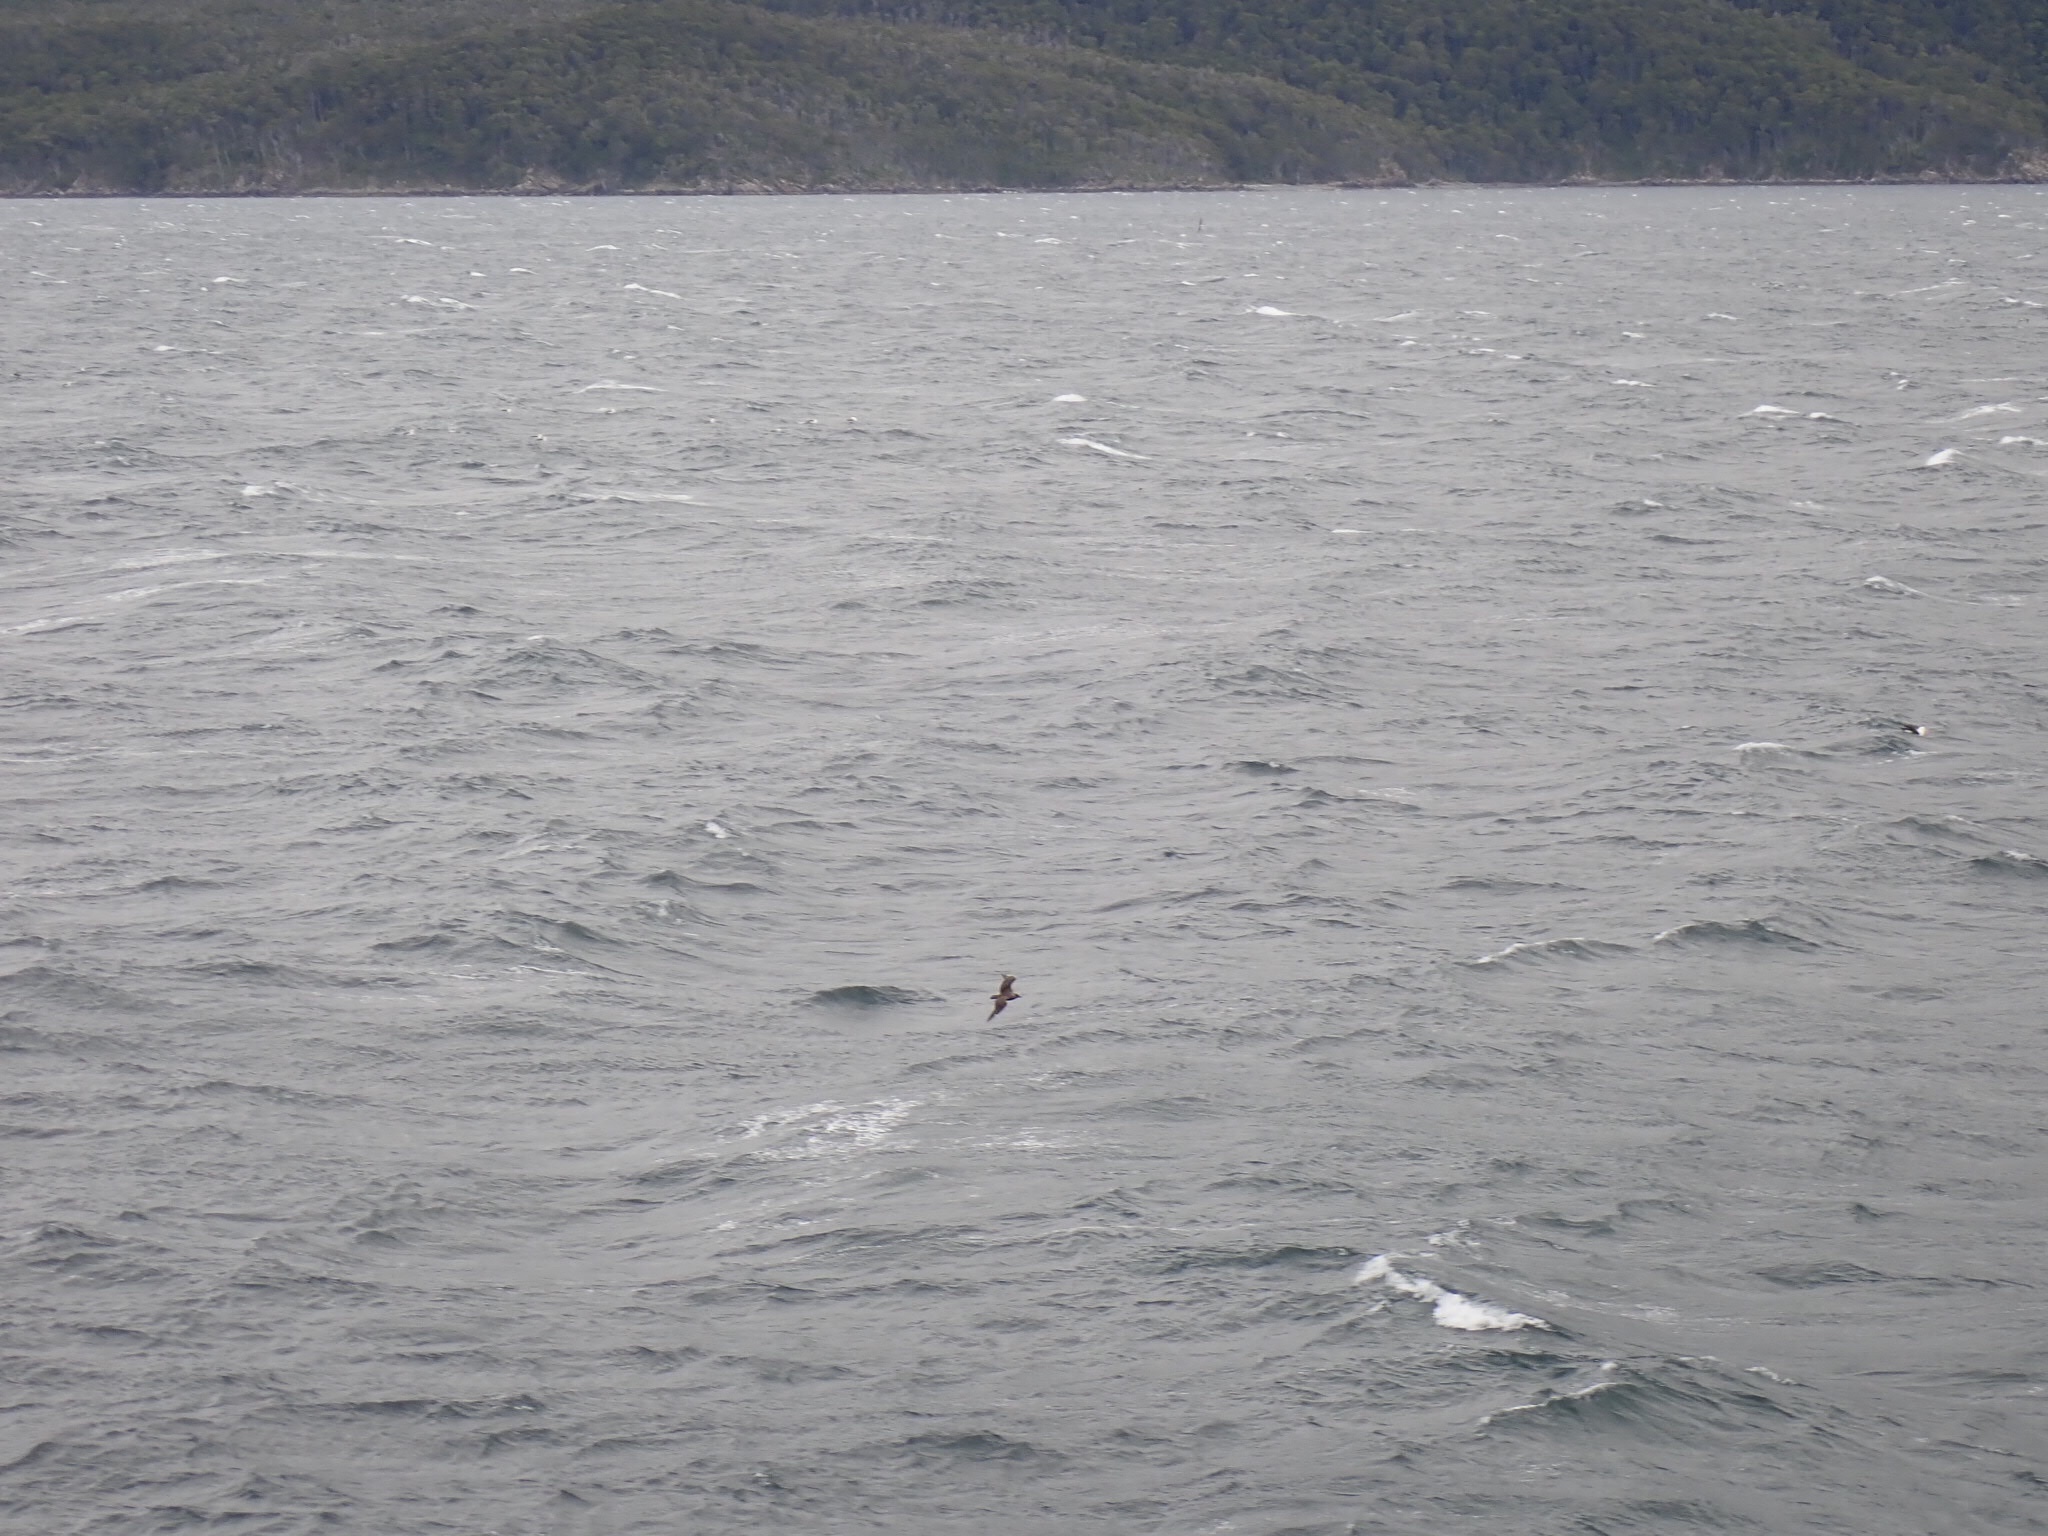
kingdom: Animalia
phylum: Chordata
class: Aves
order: Charadriiformes
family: Stercorariidae
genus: Stercorarius
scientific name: Stercorarius chilensis
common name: Chilean skua
